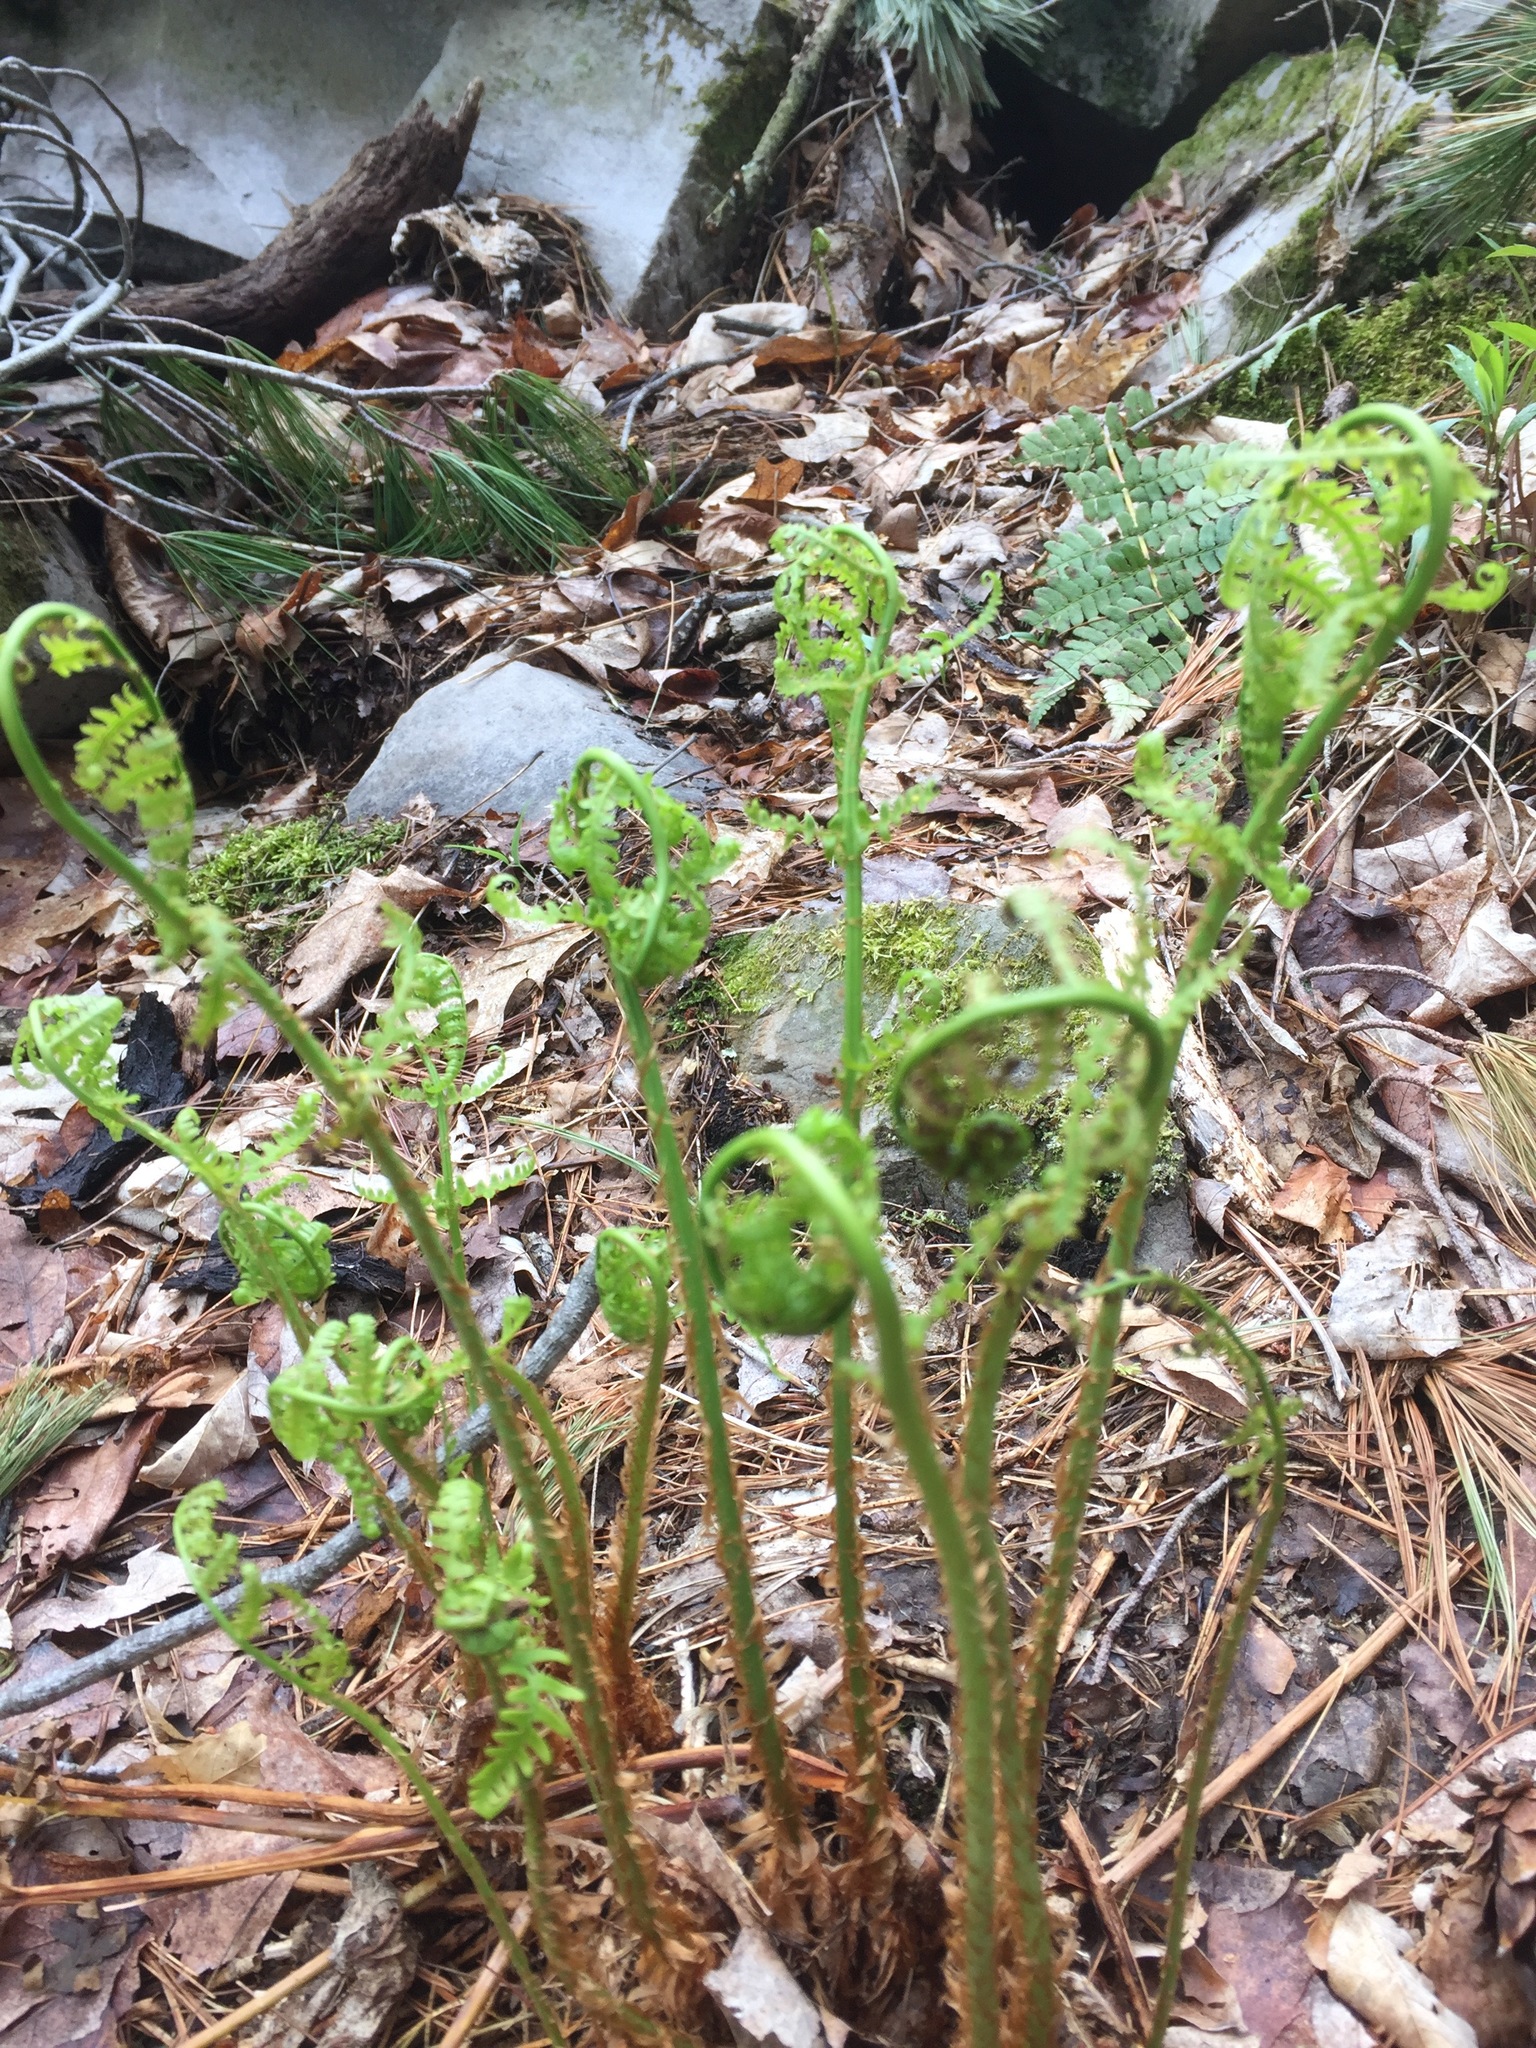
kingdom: Plantae
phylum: Tracheophyta
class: Polypodiopsida
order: Polypodiales
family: Dryopteridaceae
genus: Dryopteris
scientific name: Dryopteris marginalis
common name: Marginal wood fern
